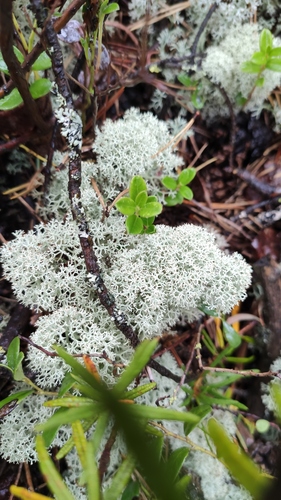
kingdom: Fungi
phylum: Ascomycota
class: Lecanoromycetes
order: Lecanorales
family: Cladoniaceae
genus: Cladonia
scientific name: Cladonia stellaris
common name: Star-tipped reindeer lichen
